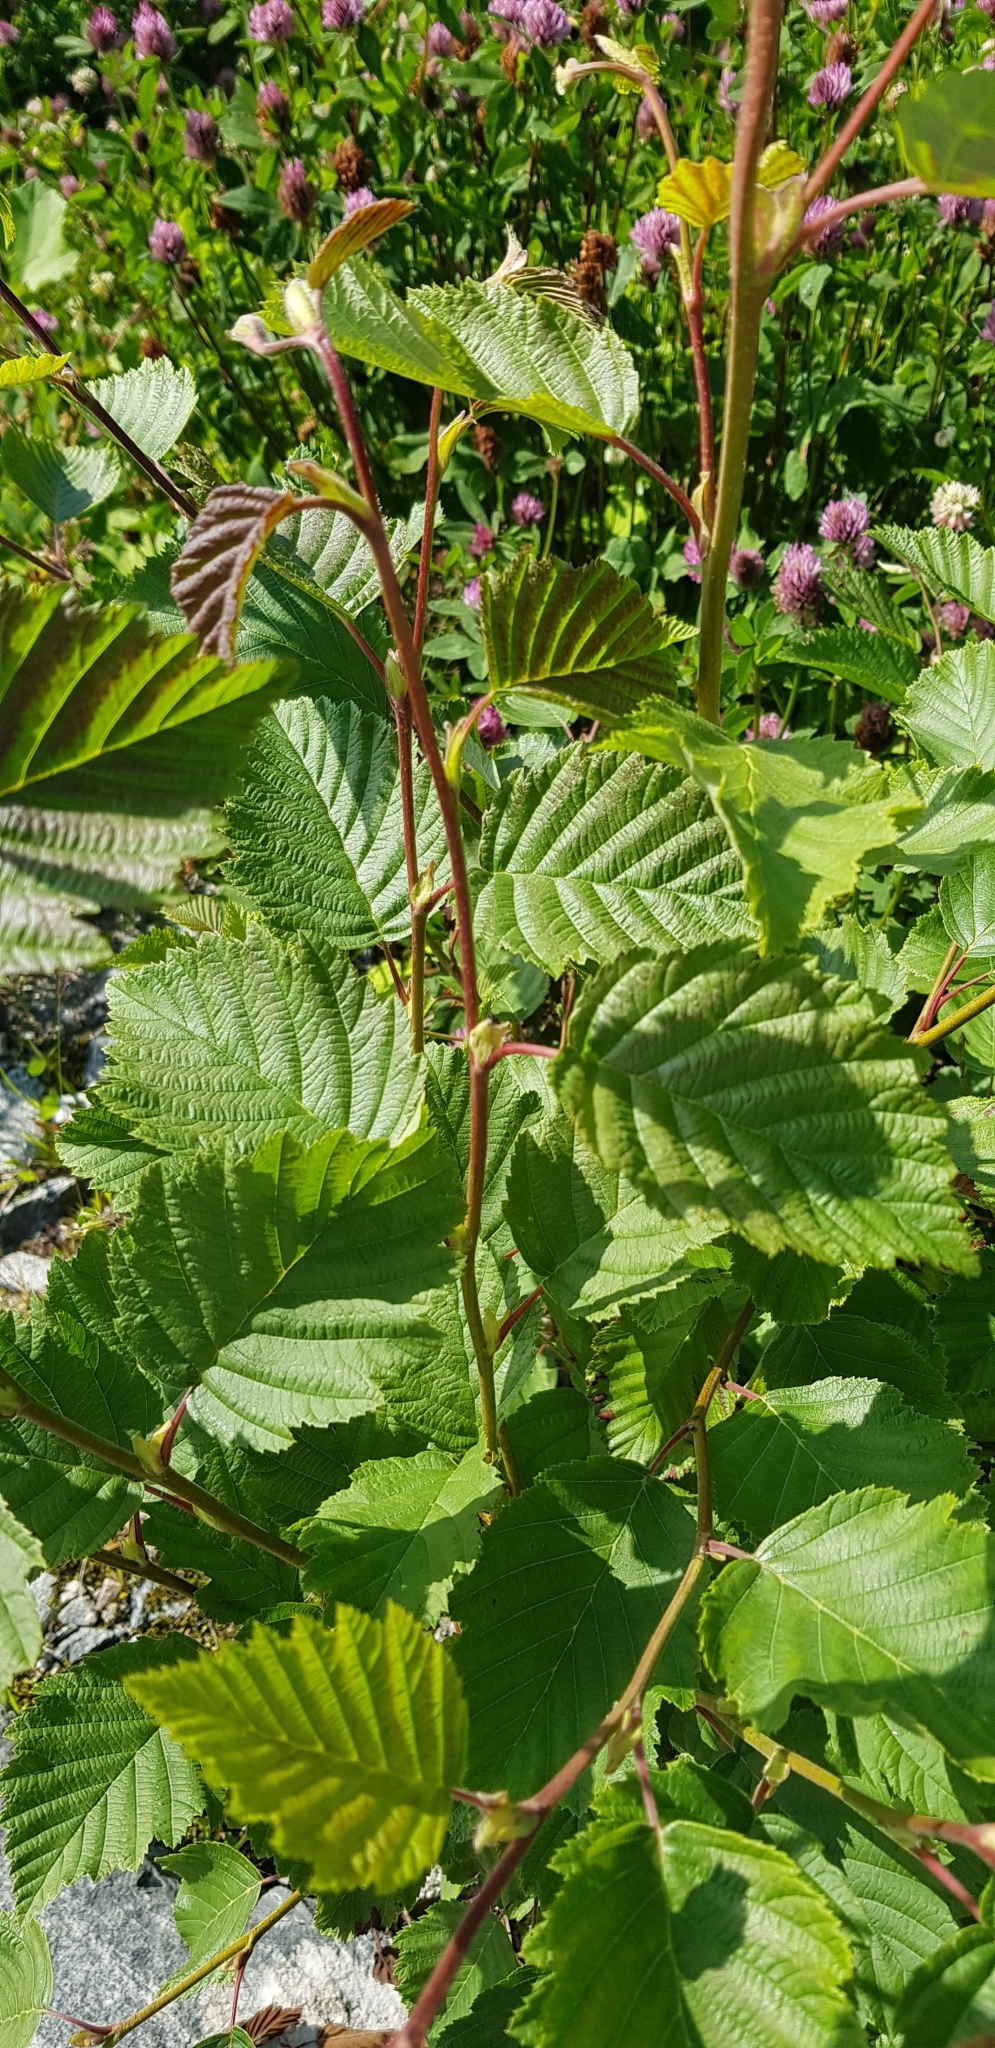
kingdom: Plantae
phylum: Tracheophyta
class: Magnoliopsida
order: Fagales
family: Betulaceae
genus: Alnus
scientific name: Alnus incana
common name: Grey alder
